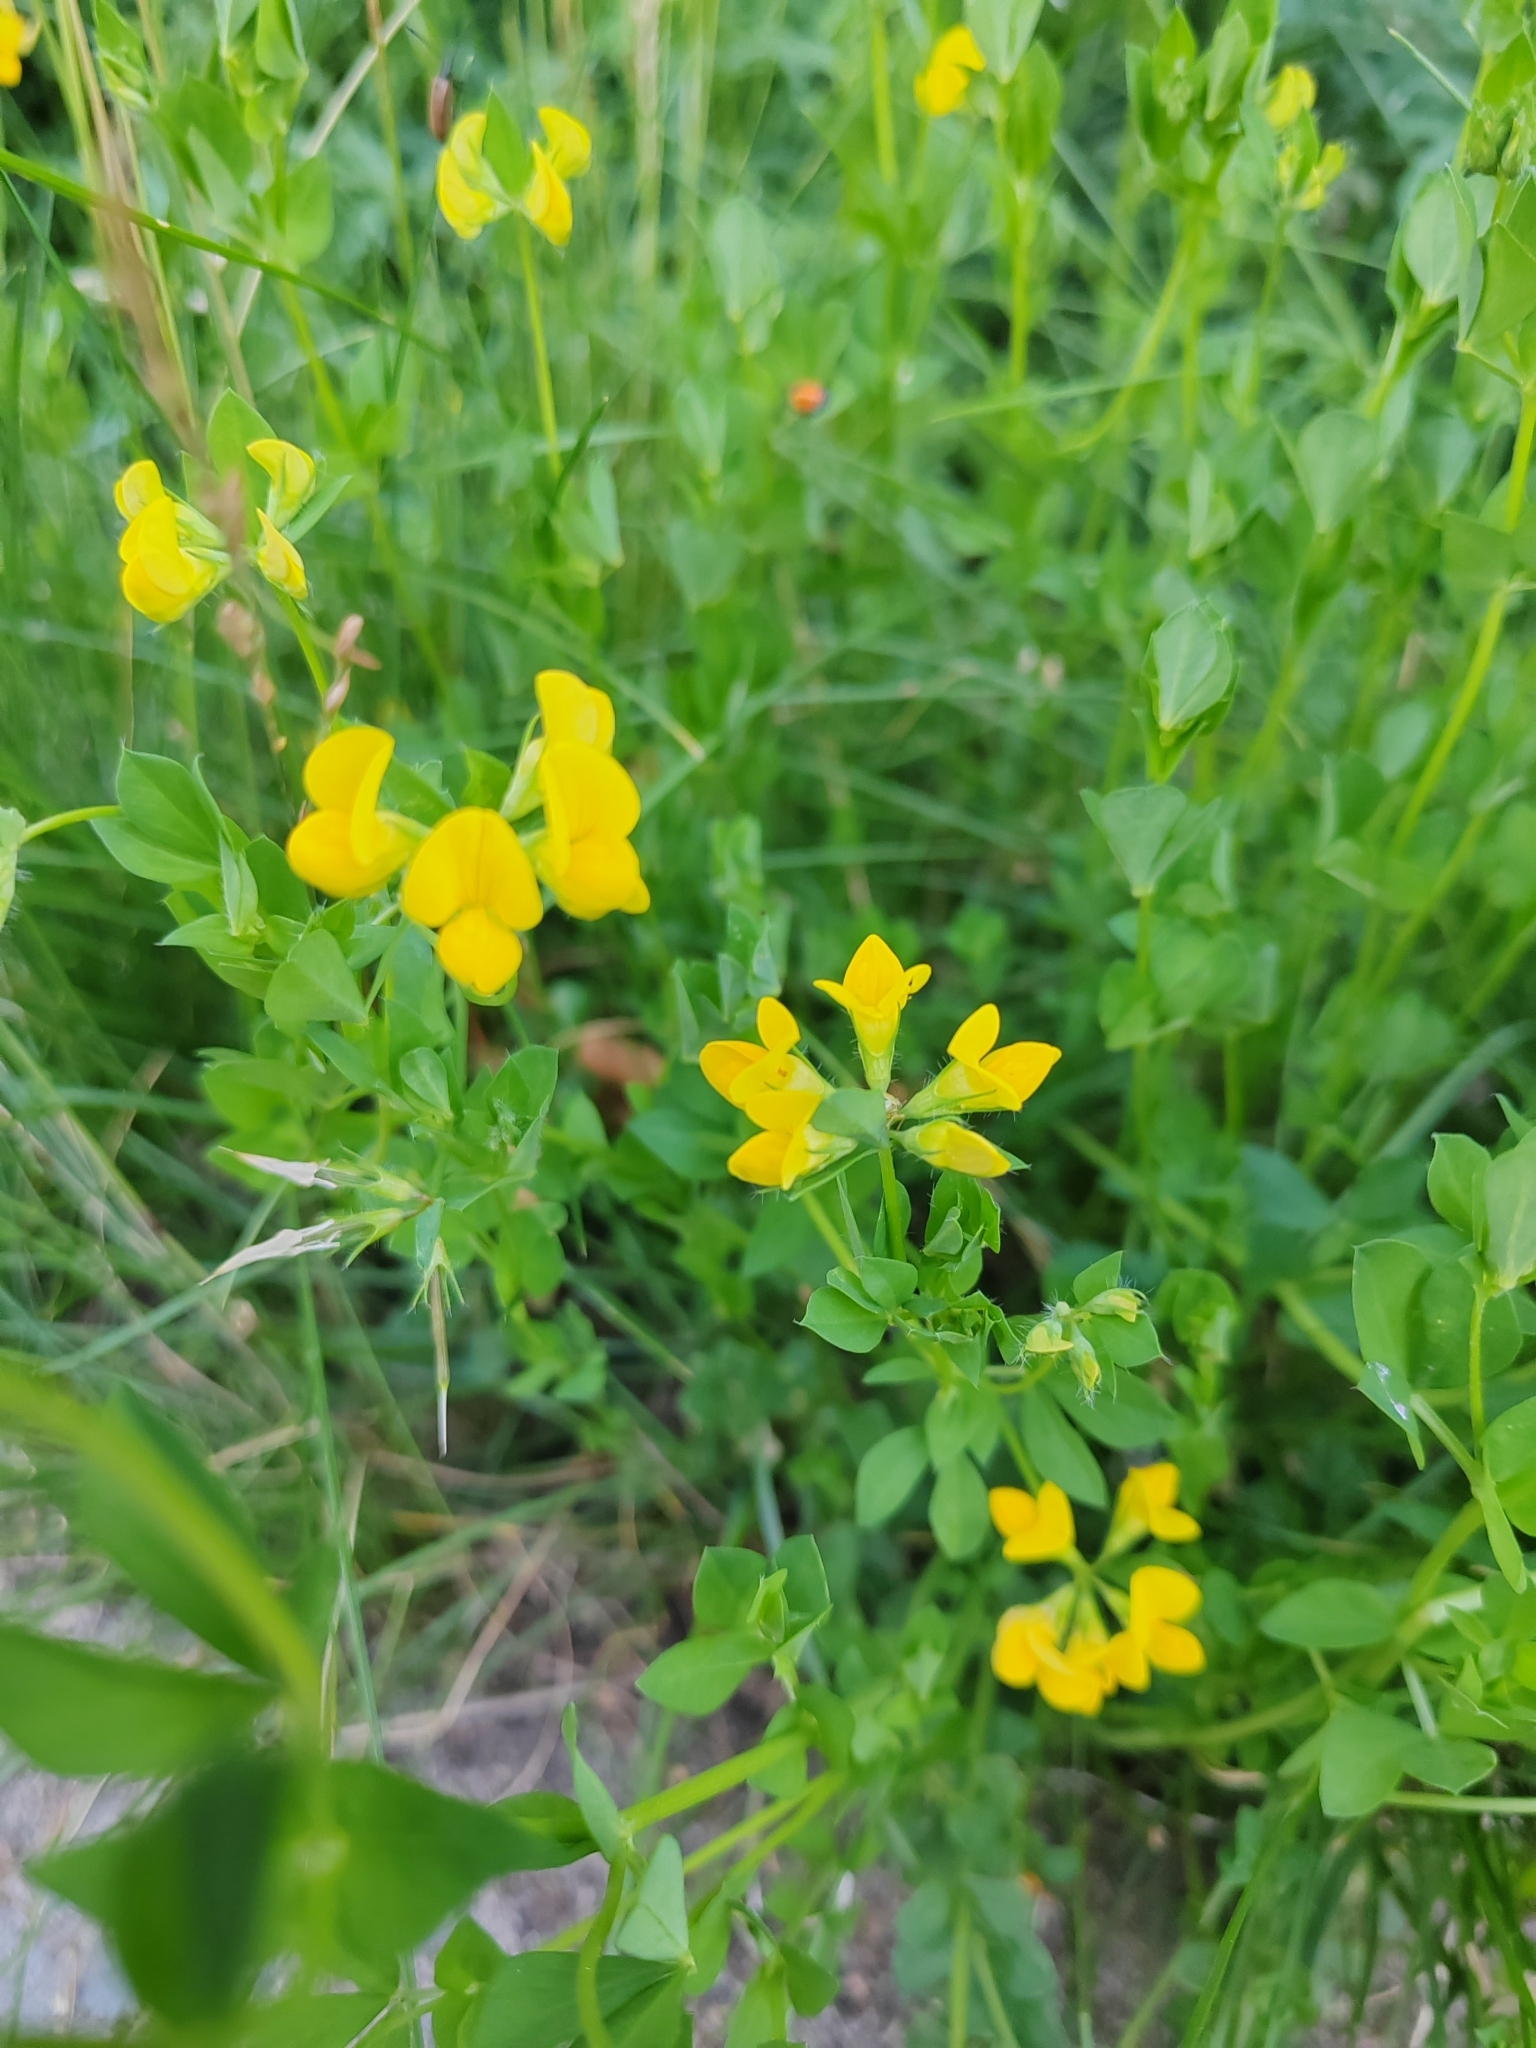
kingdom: Plantae
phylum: Tracheophyta
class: Magnoliopsida
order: Fabales
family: Fabaceae
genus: Lotus
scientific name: Lotus corniculatus
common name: Common bird's-foot-trefoil
